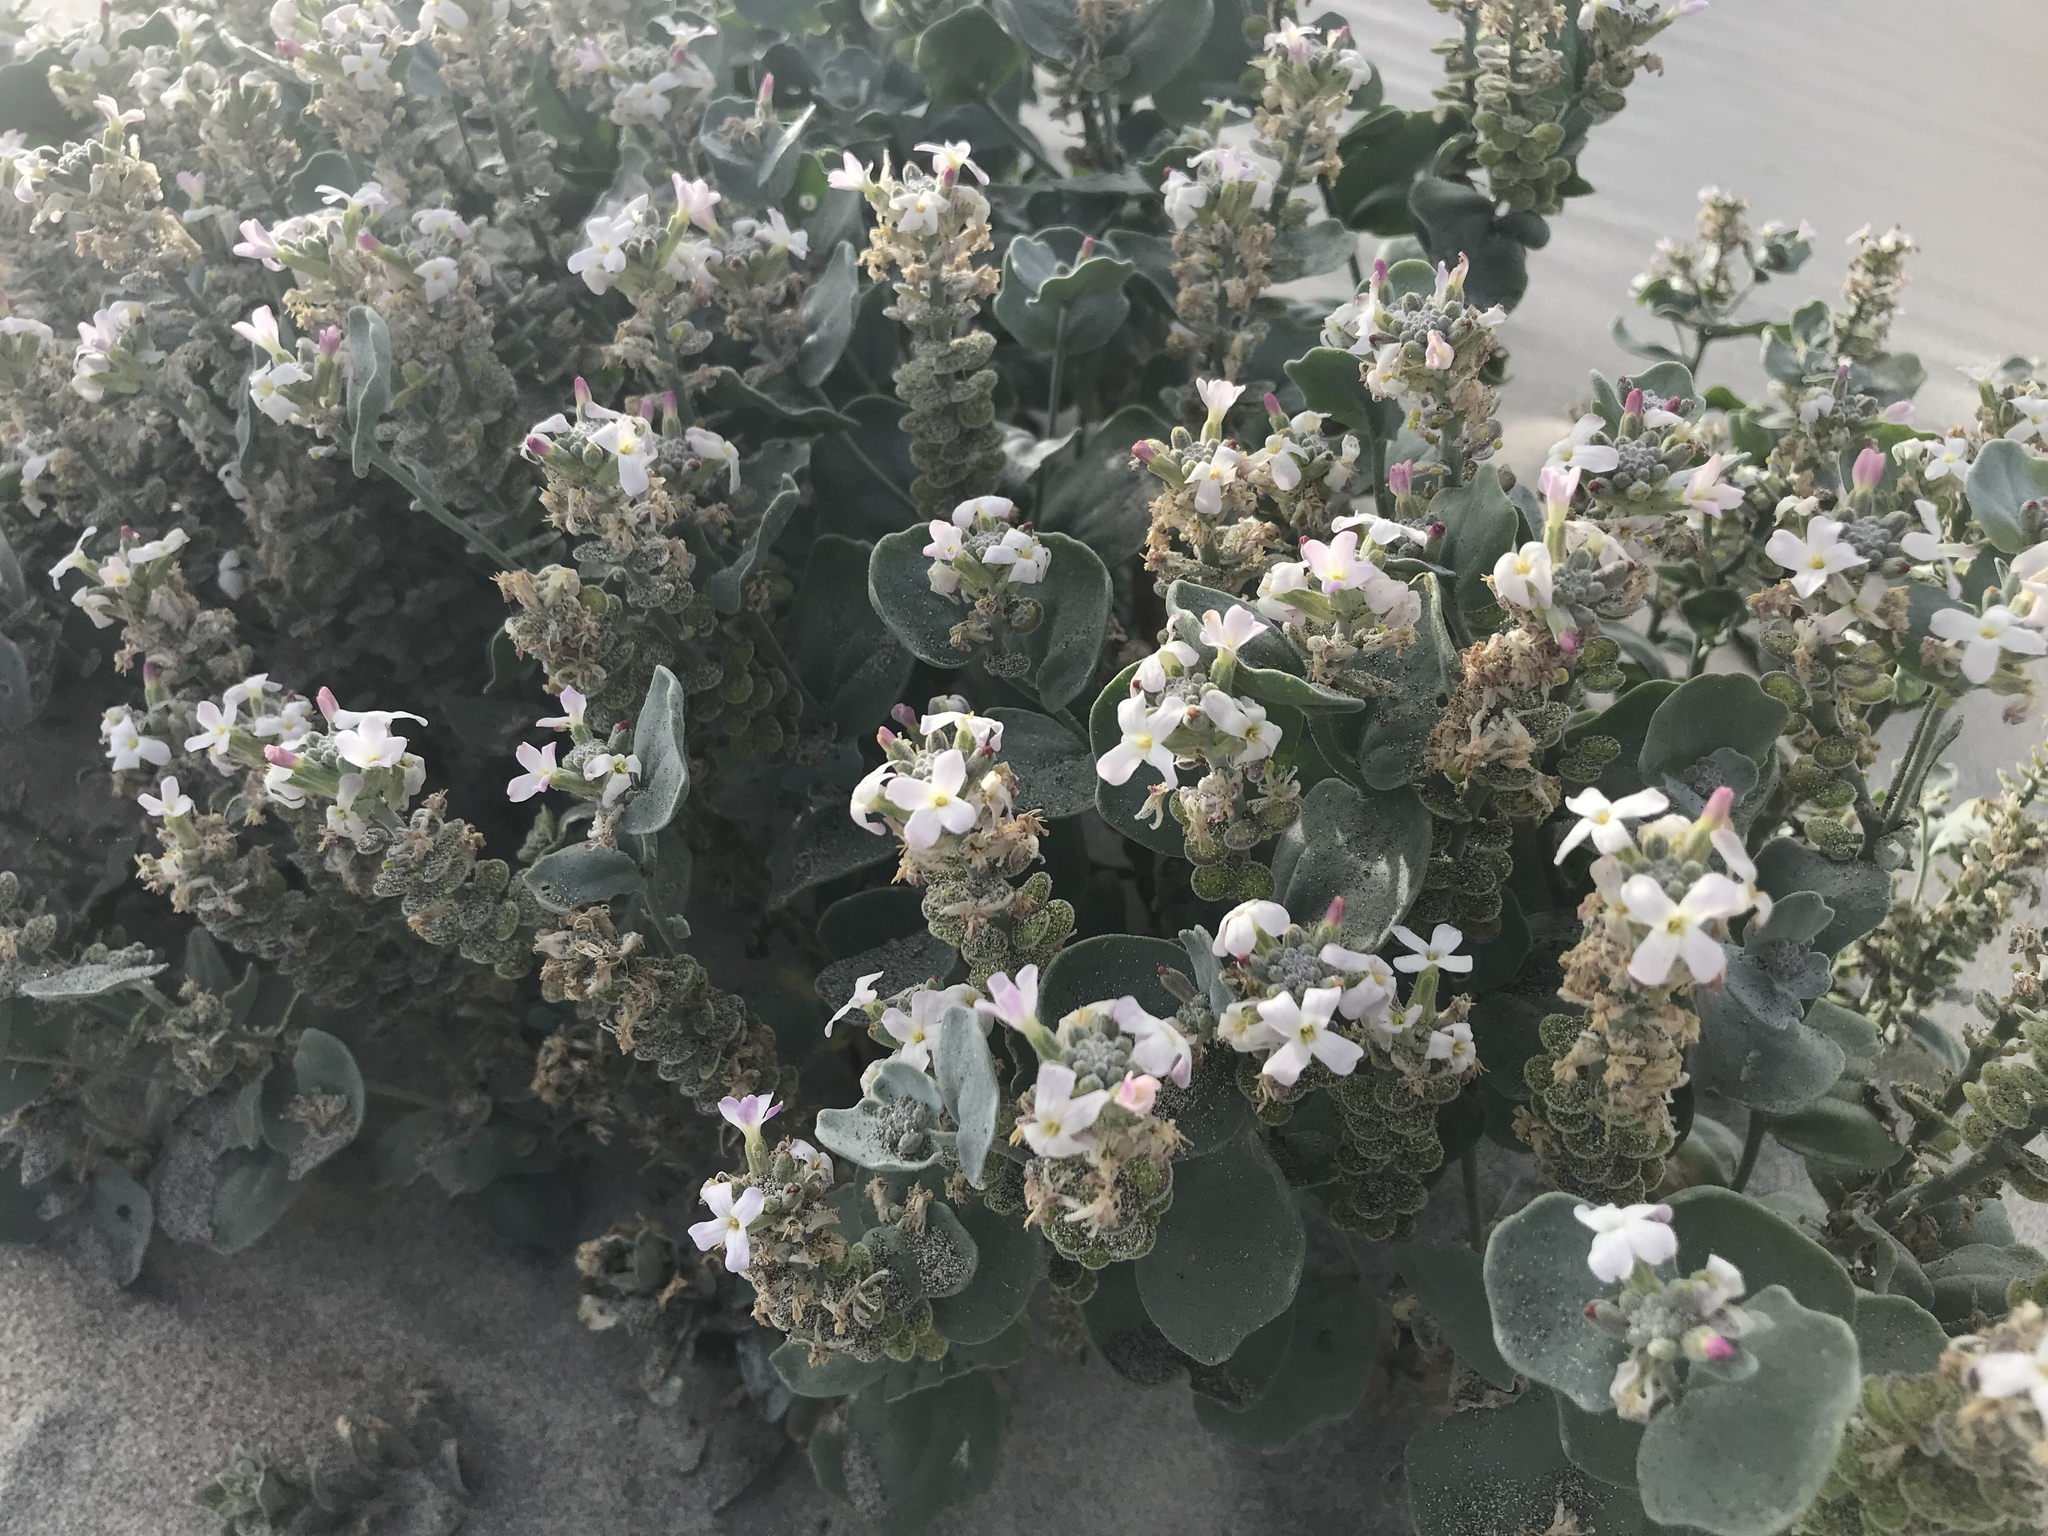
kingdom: Plantae
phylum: Tracheophyta
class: Magnoliopsida
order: Brassicales
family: Brassicaceae
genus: Dithyrea
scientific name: Dithyrea maritima
